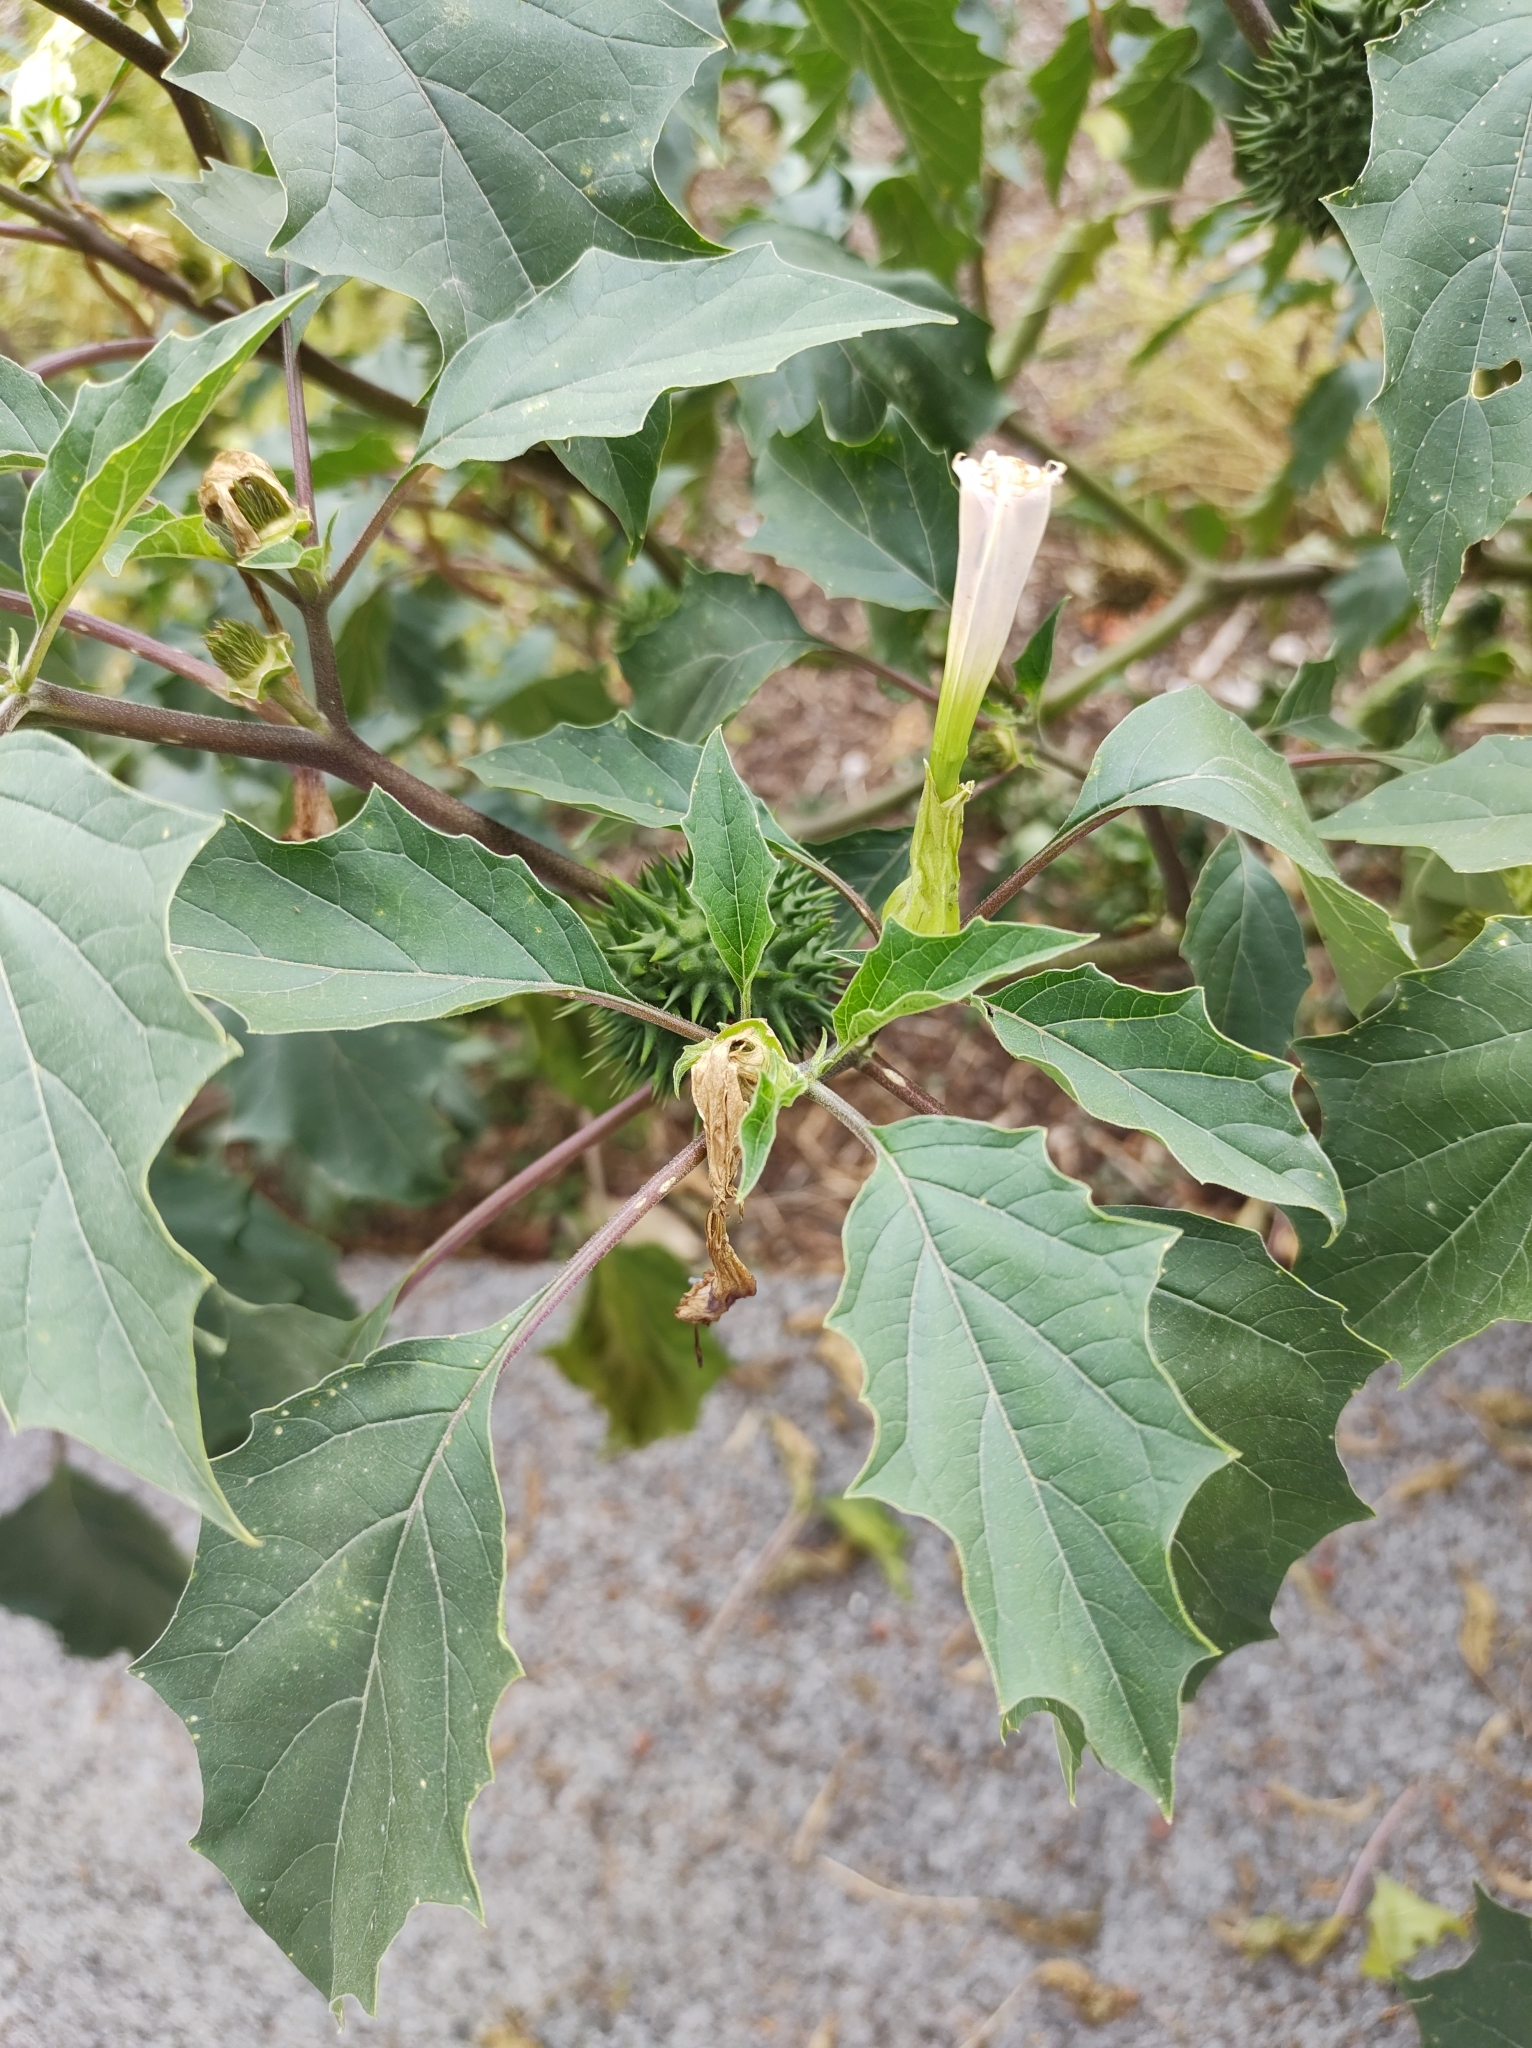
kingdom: Plantae
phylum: Tracheophyta
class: Magnoliopsida
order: Solanales
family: Solanaceae
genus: Datura
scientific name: Datura stramonium
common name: Thorn-apple
